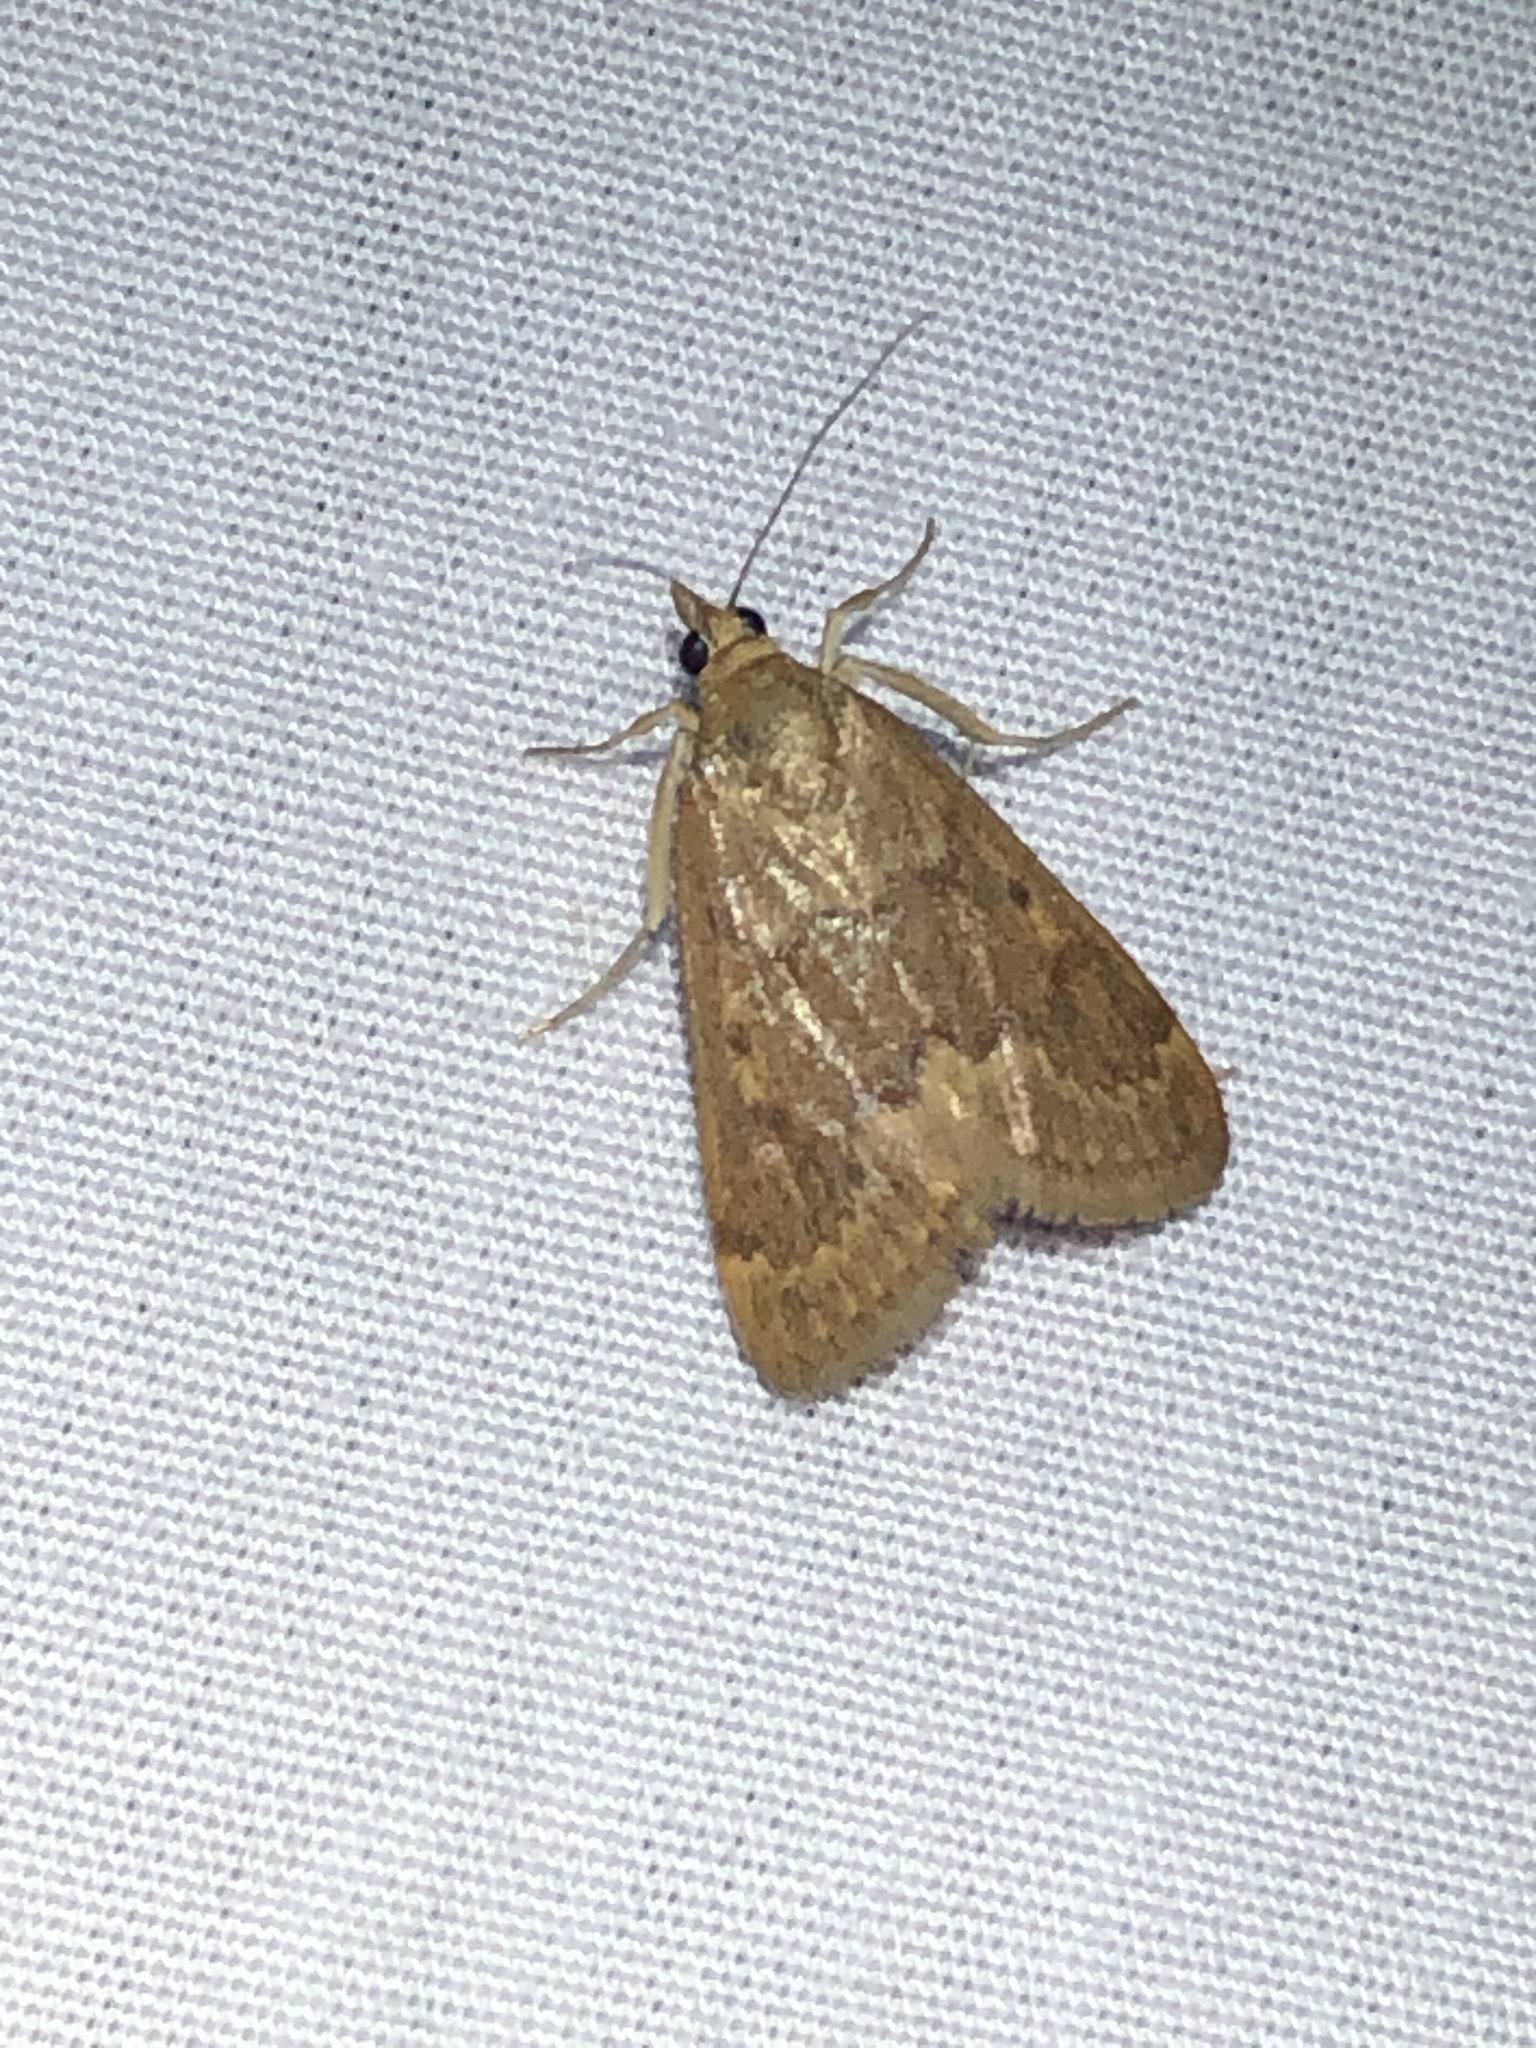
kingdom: Animalia
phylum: Arthropoda
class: Insecta
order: Lepidoptera
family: Crambidae
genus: Achyra
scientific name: Achyra rantalis
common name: Garden webworm
